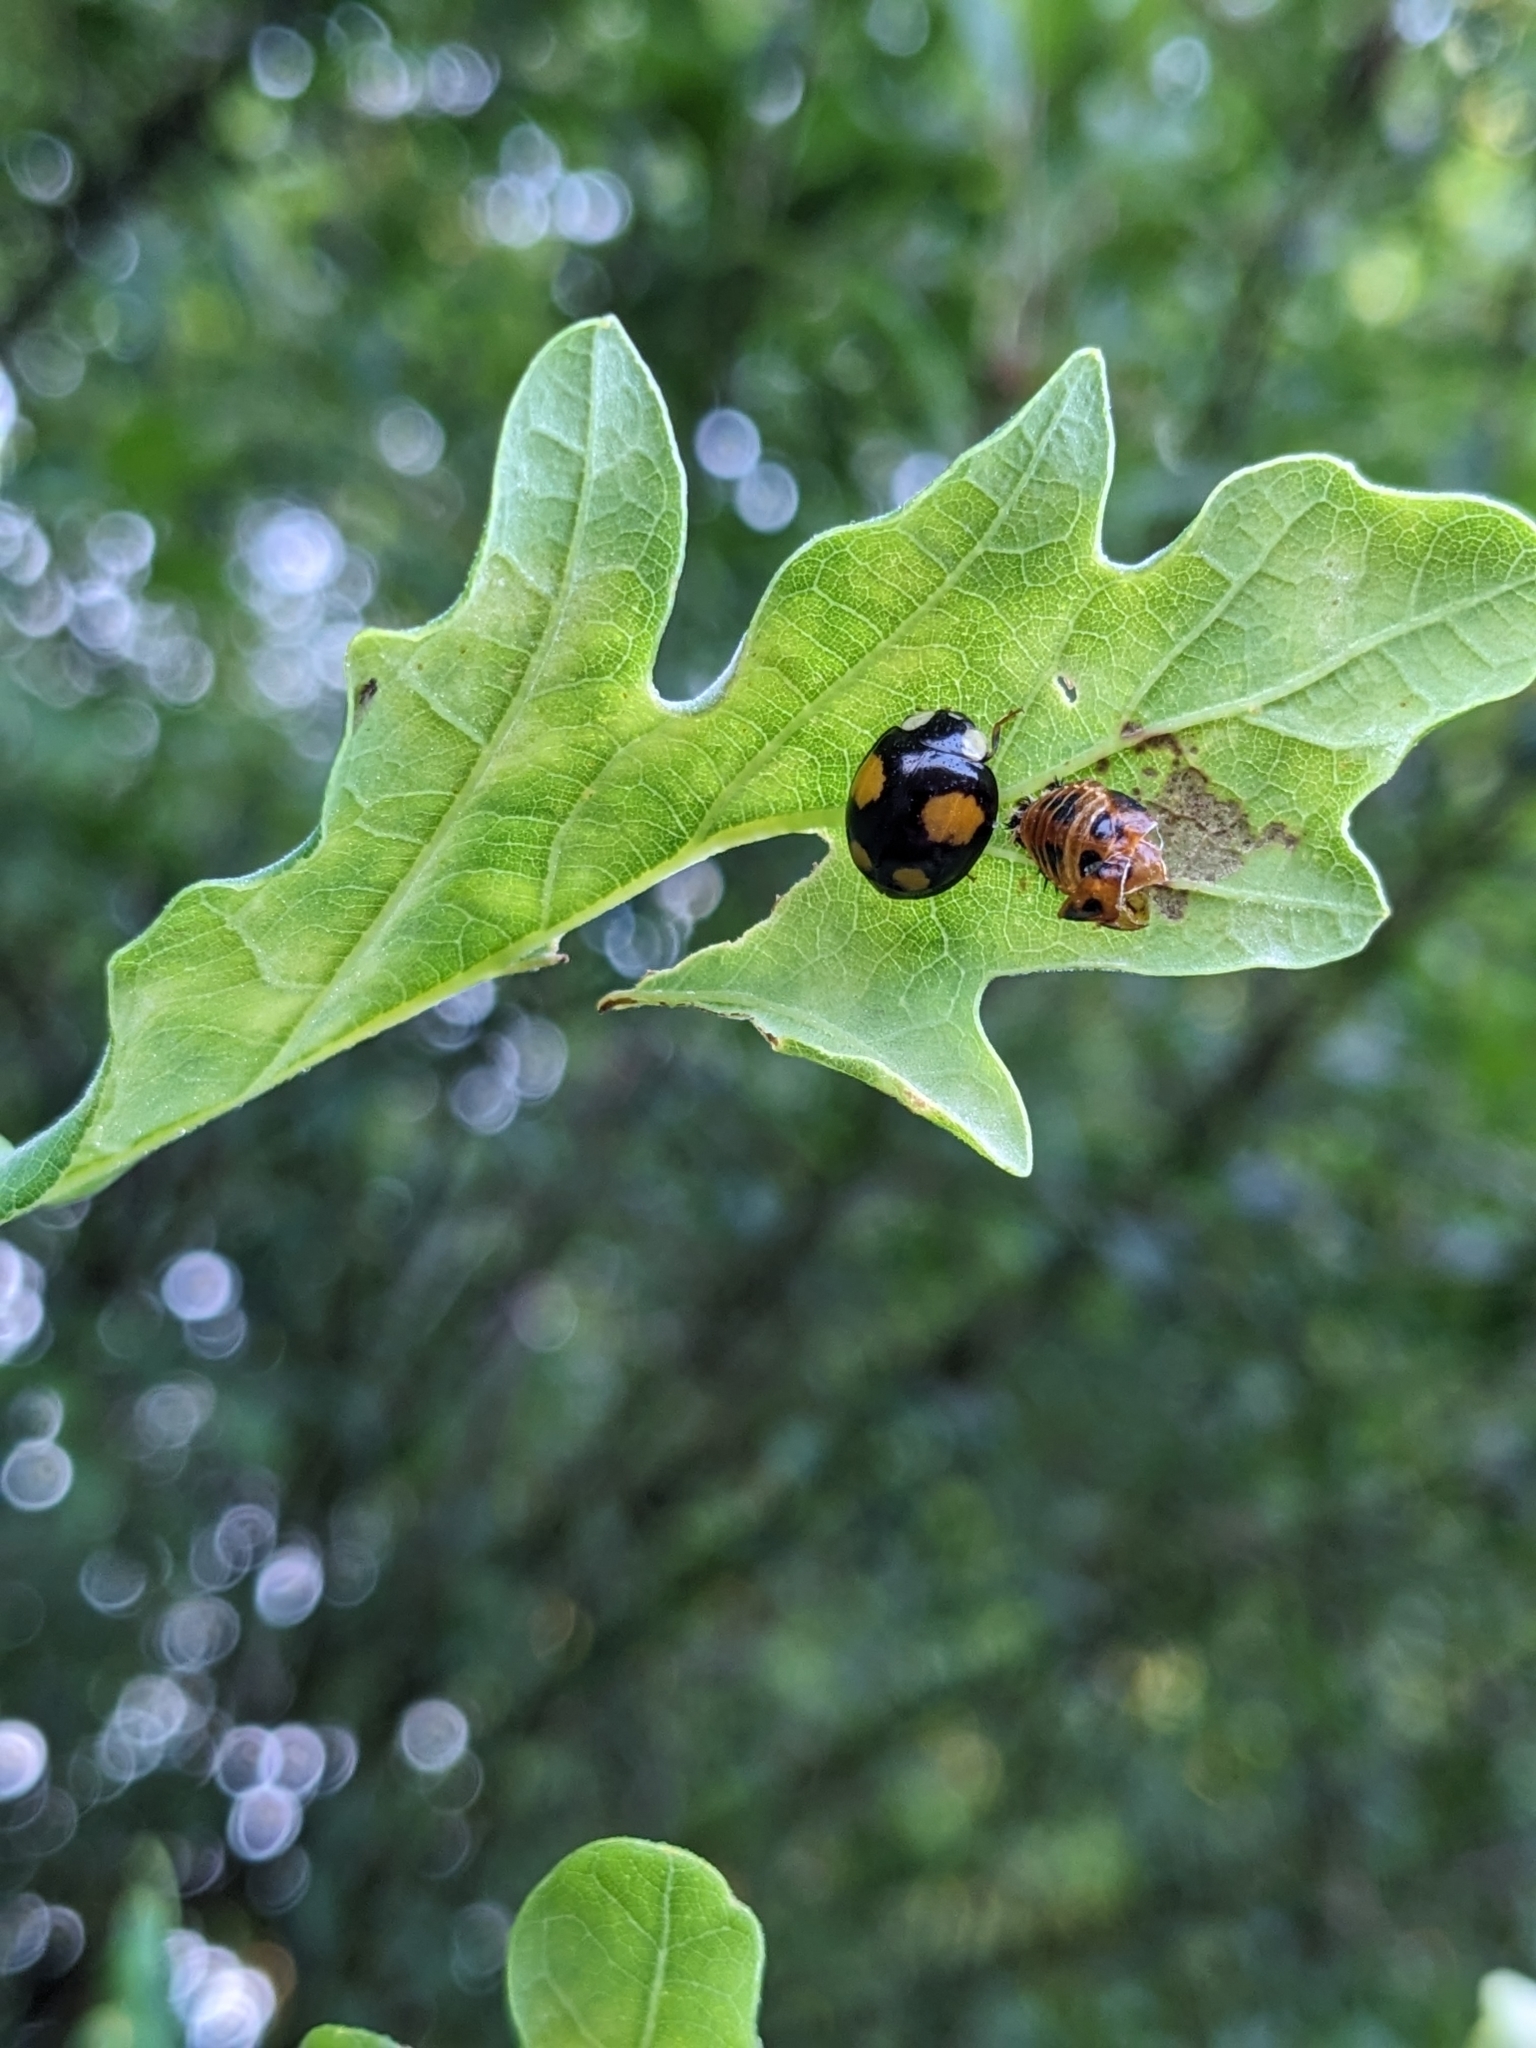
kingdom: Animalia
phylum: Arthropoda
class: Insecta
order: Coleoptera
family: Coccinellidae
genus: Harmonia
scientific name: Harmonia axyridis
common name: Harlequin ladybird
